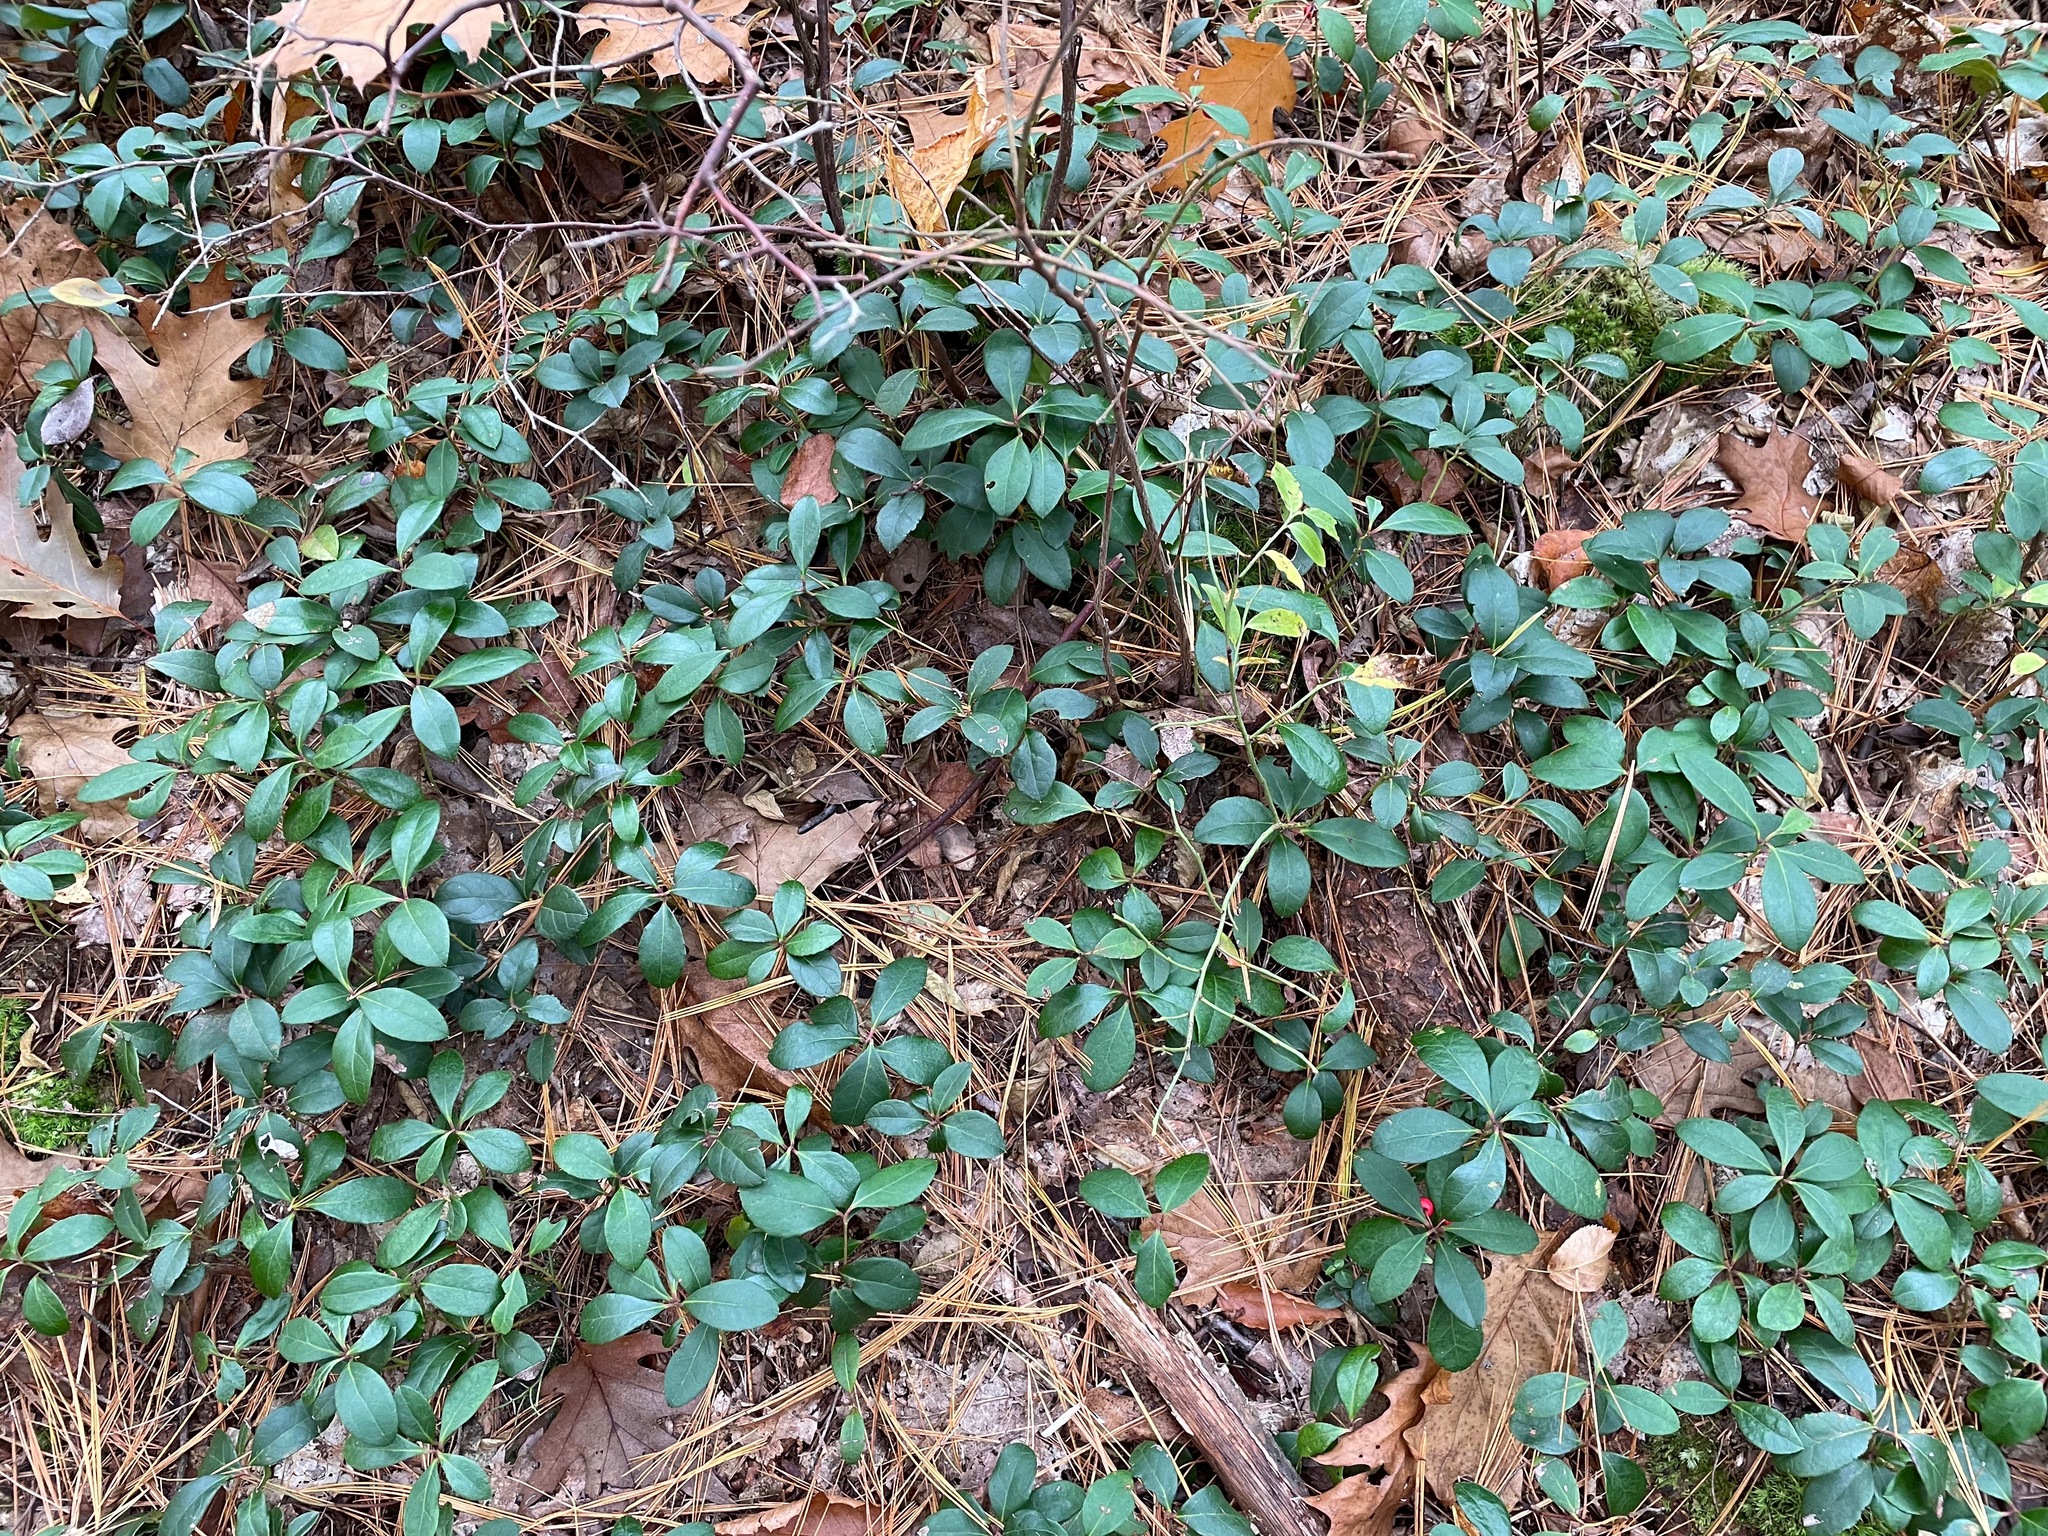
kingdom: Plantae
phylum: Tracheophyta
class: Magnoliopsida
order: Ericales
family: Ericaceae
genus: Gaultheria
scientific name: Gaultheria procumbens
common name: Checkerberry
